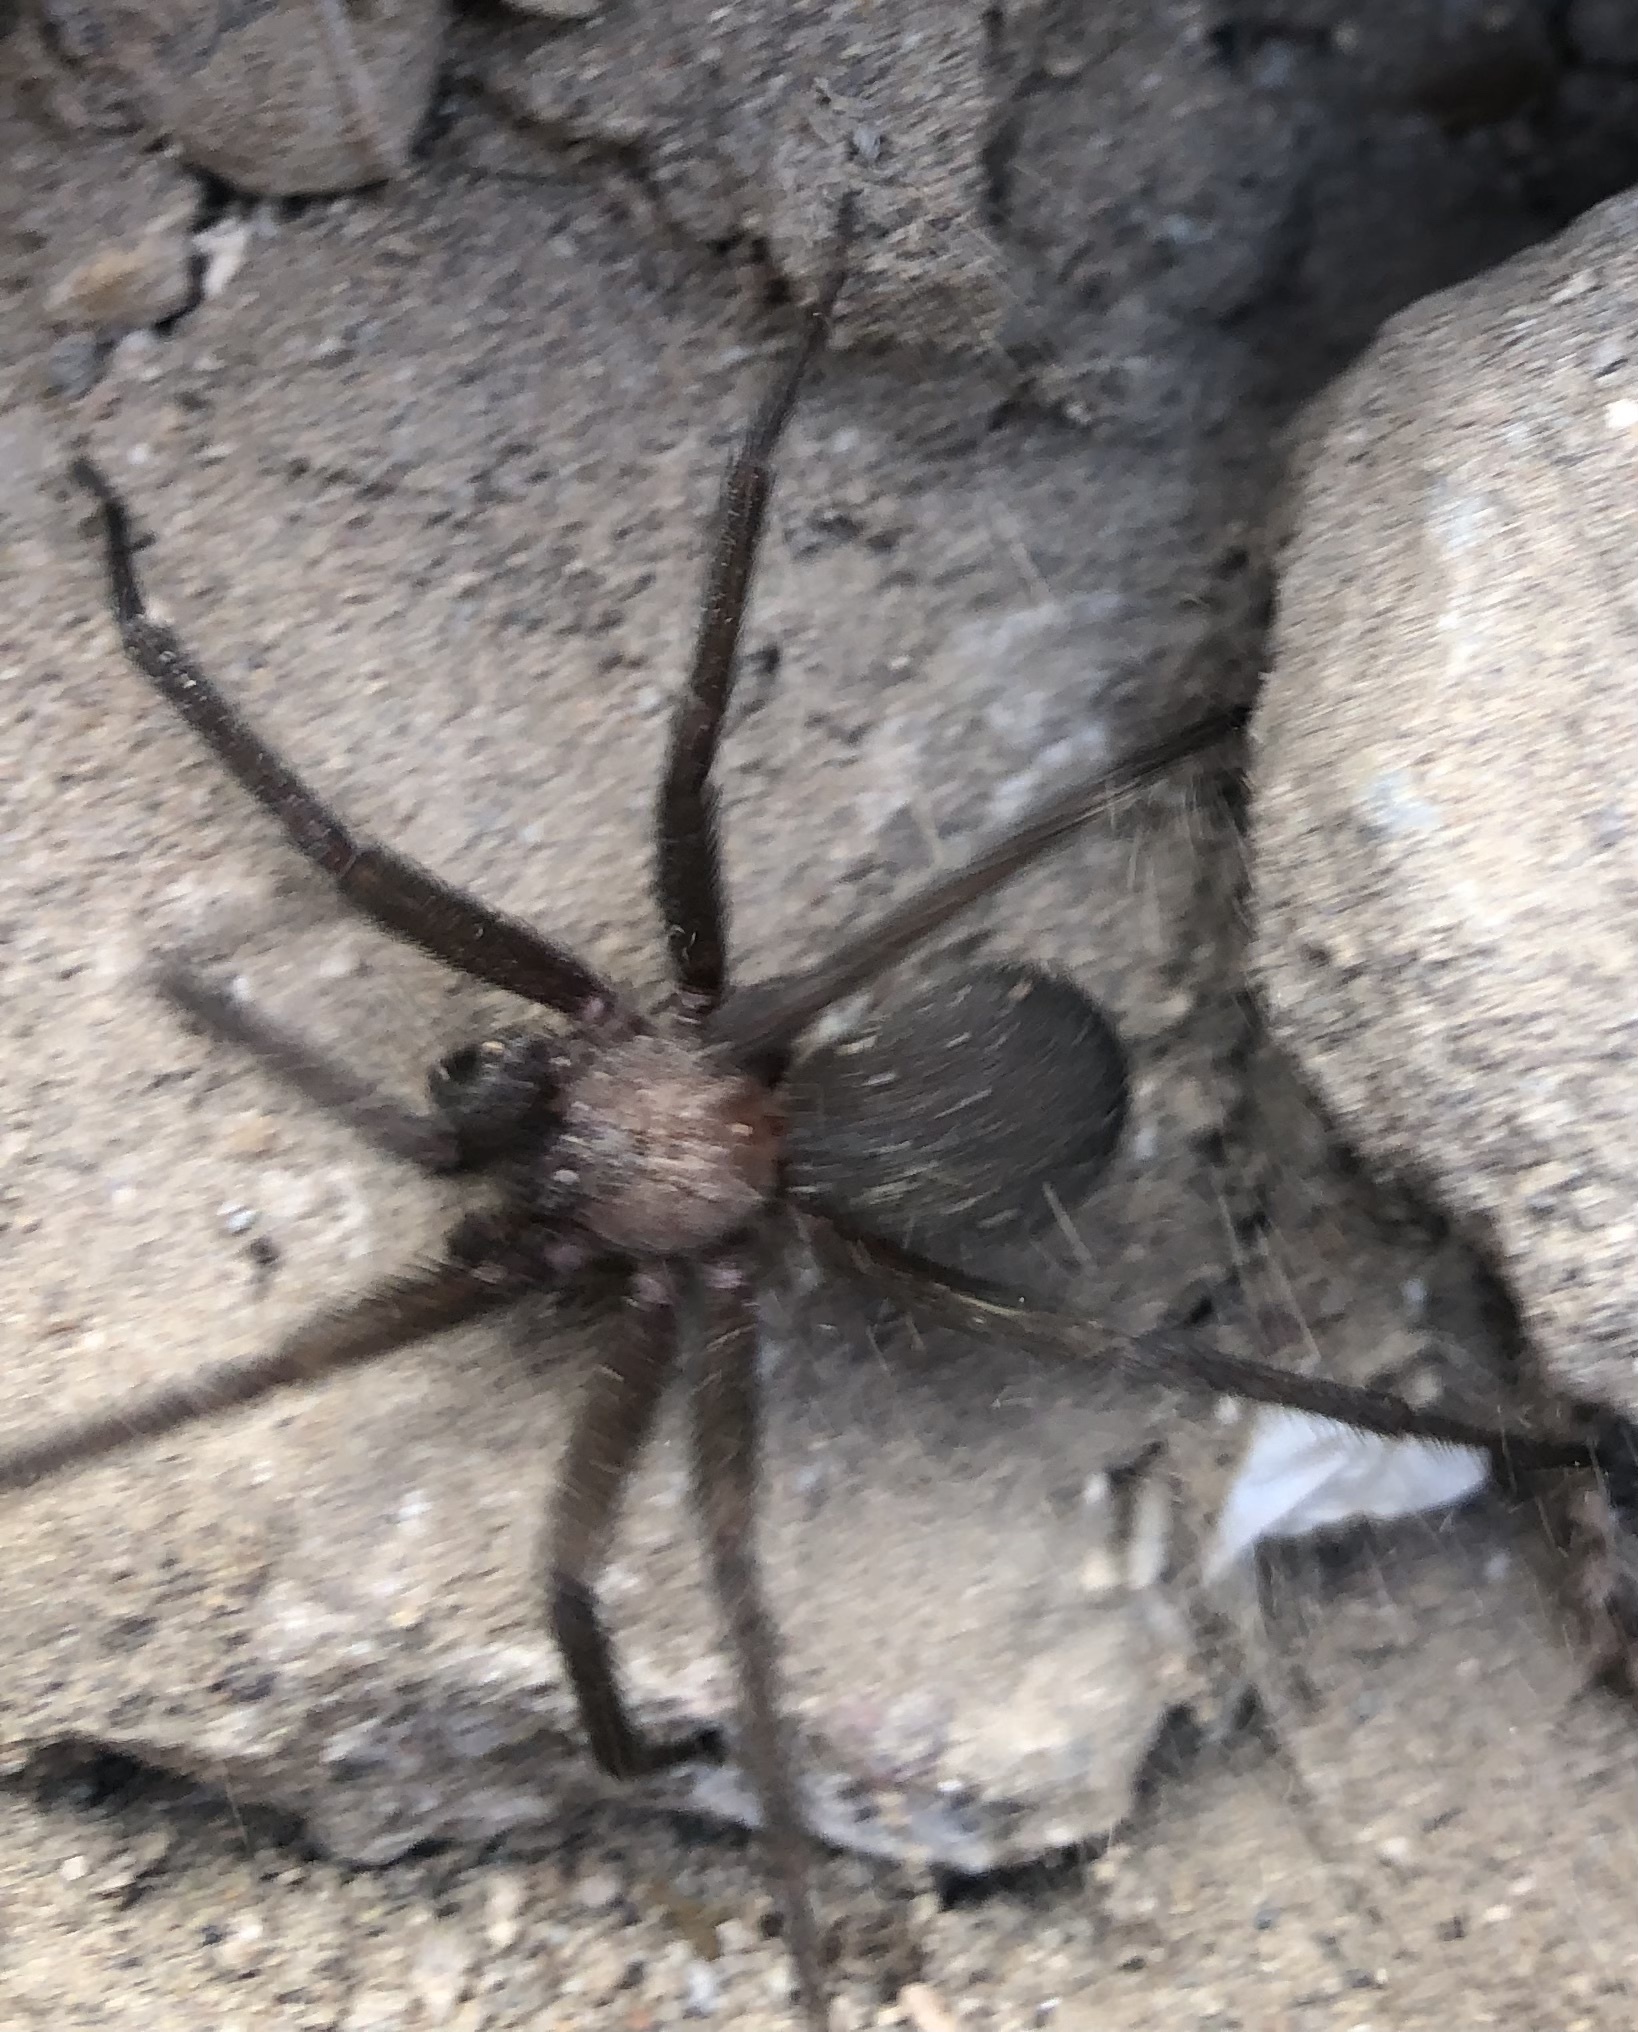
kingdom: Animalia
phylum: Arthropoda
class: Arachnida
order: Araneae
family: Sicariidae
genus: Loxosceles
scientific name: Loxosceles laeta
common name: Chilean recluse spider
